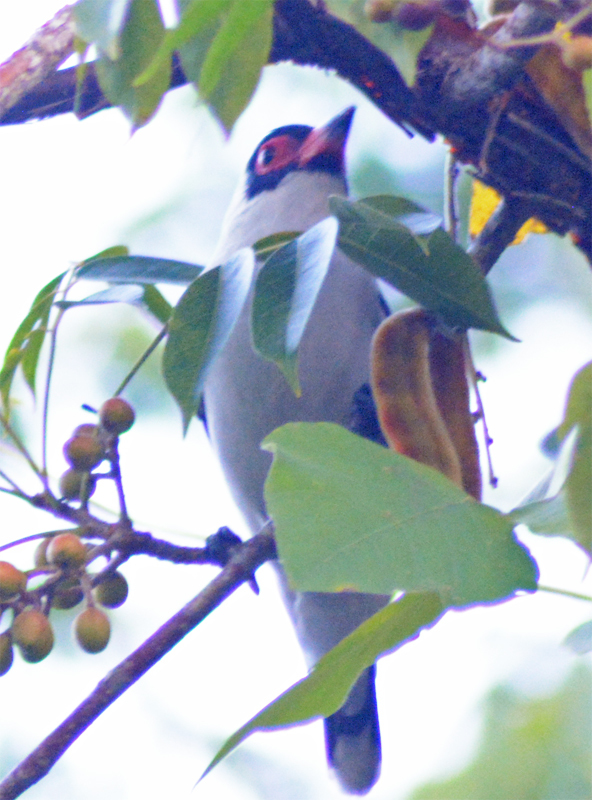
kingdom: Animalia
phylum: Chordata
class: Aves
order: Passeriformes
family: Cotingidae
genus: Tityra
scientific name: Tityra semifasciata
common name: Masked tityra
